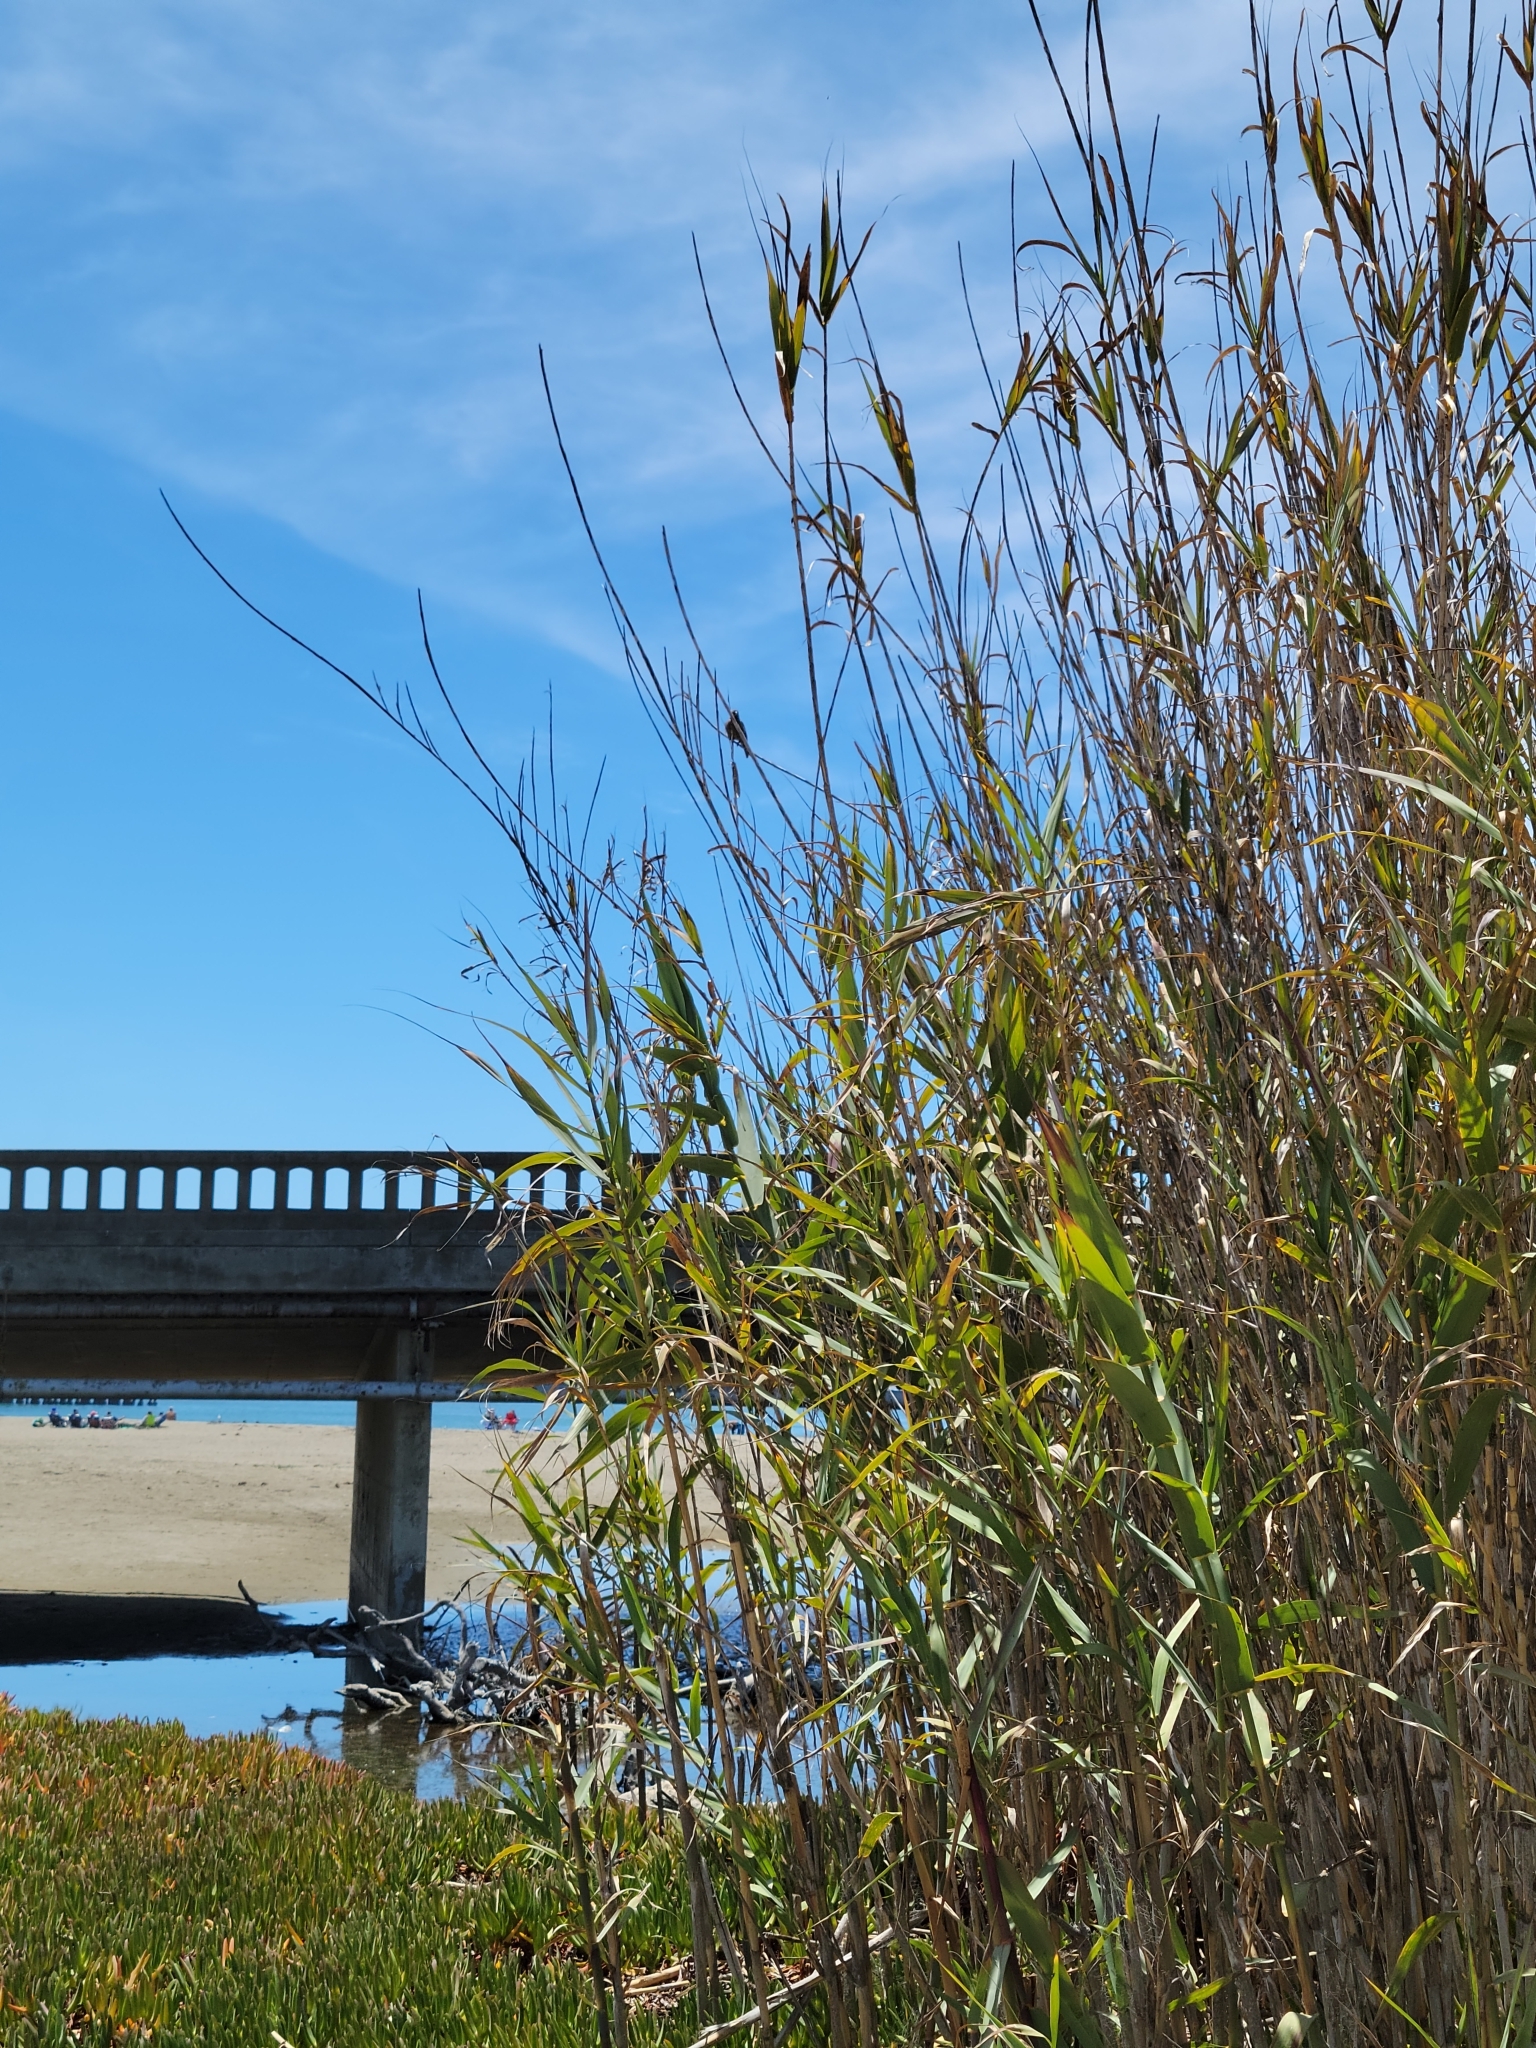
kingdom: Plantae
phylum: Tracheophyta
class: Liliopsida
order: Poales
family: Poaceae
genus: Arundo
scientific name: Arundo donax
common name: Giant reed
